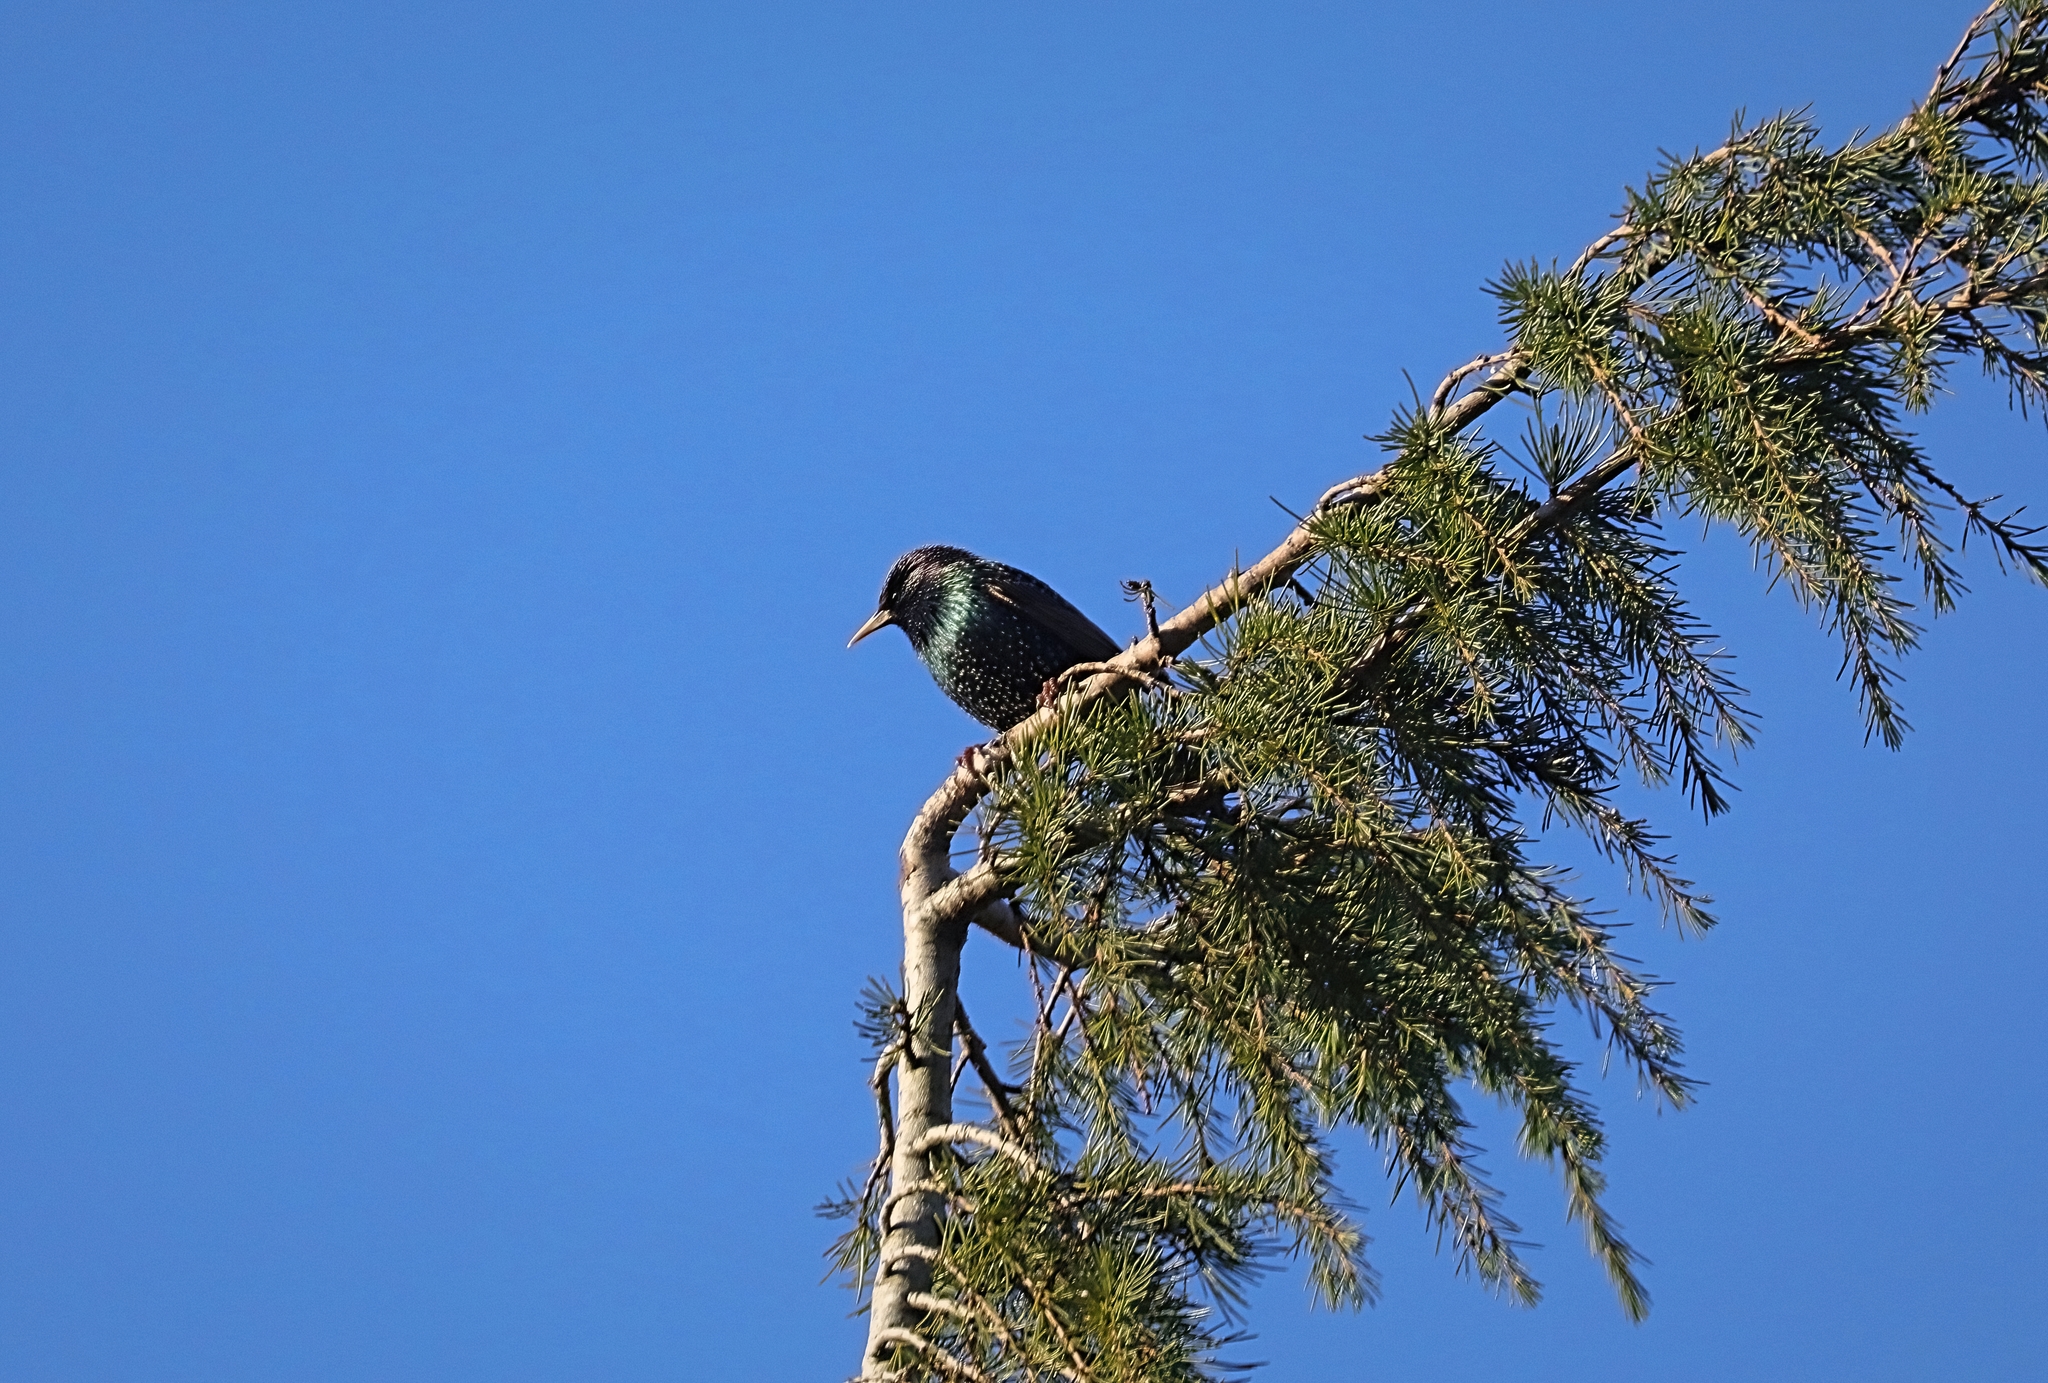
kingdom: Animalia
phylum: Chordata
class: Aves
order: Passeriformes
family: Sturnidae
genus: Sturnus
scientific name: Sturnus vulgaris
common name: Common starling
